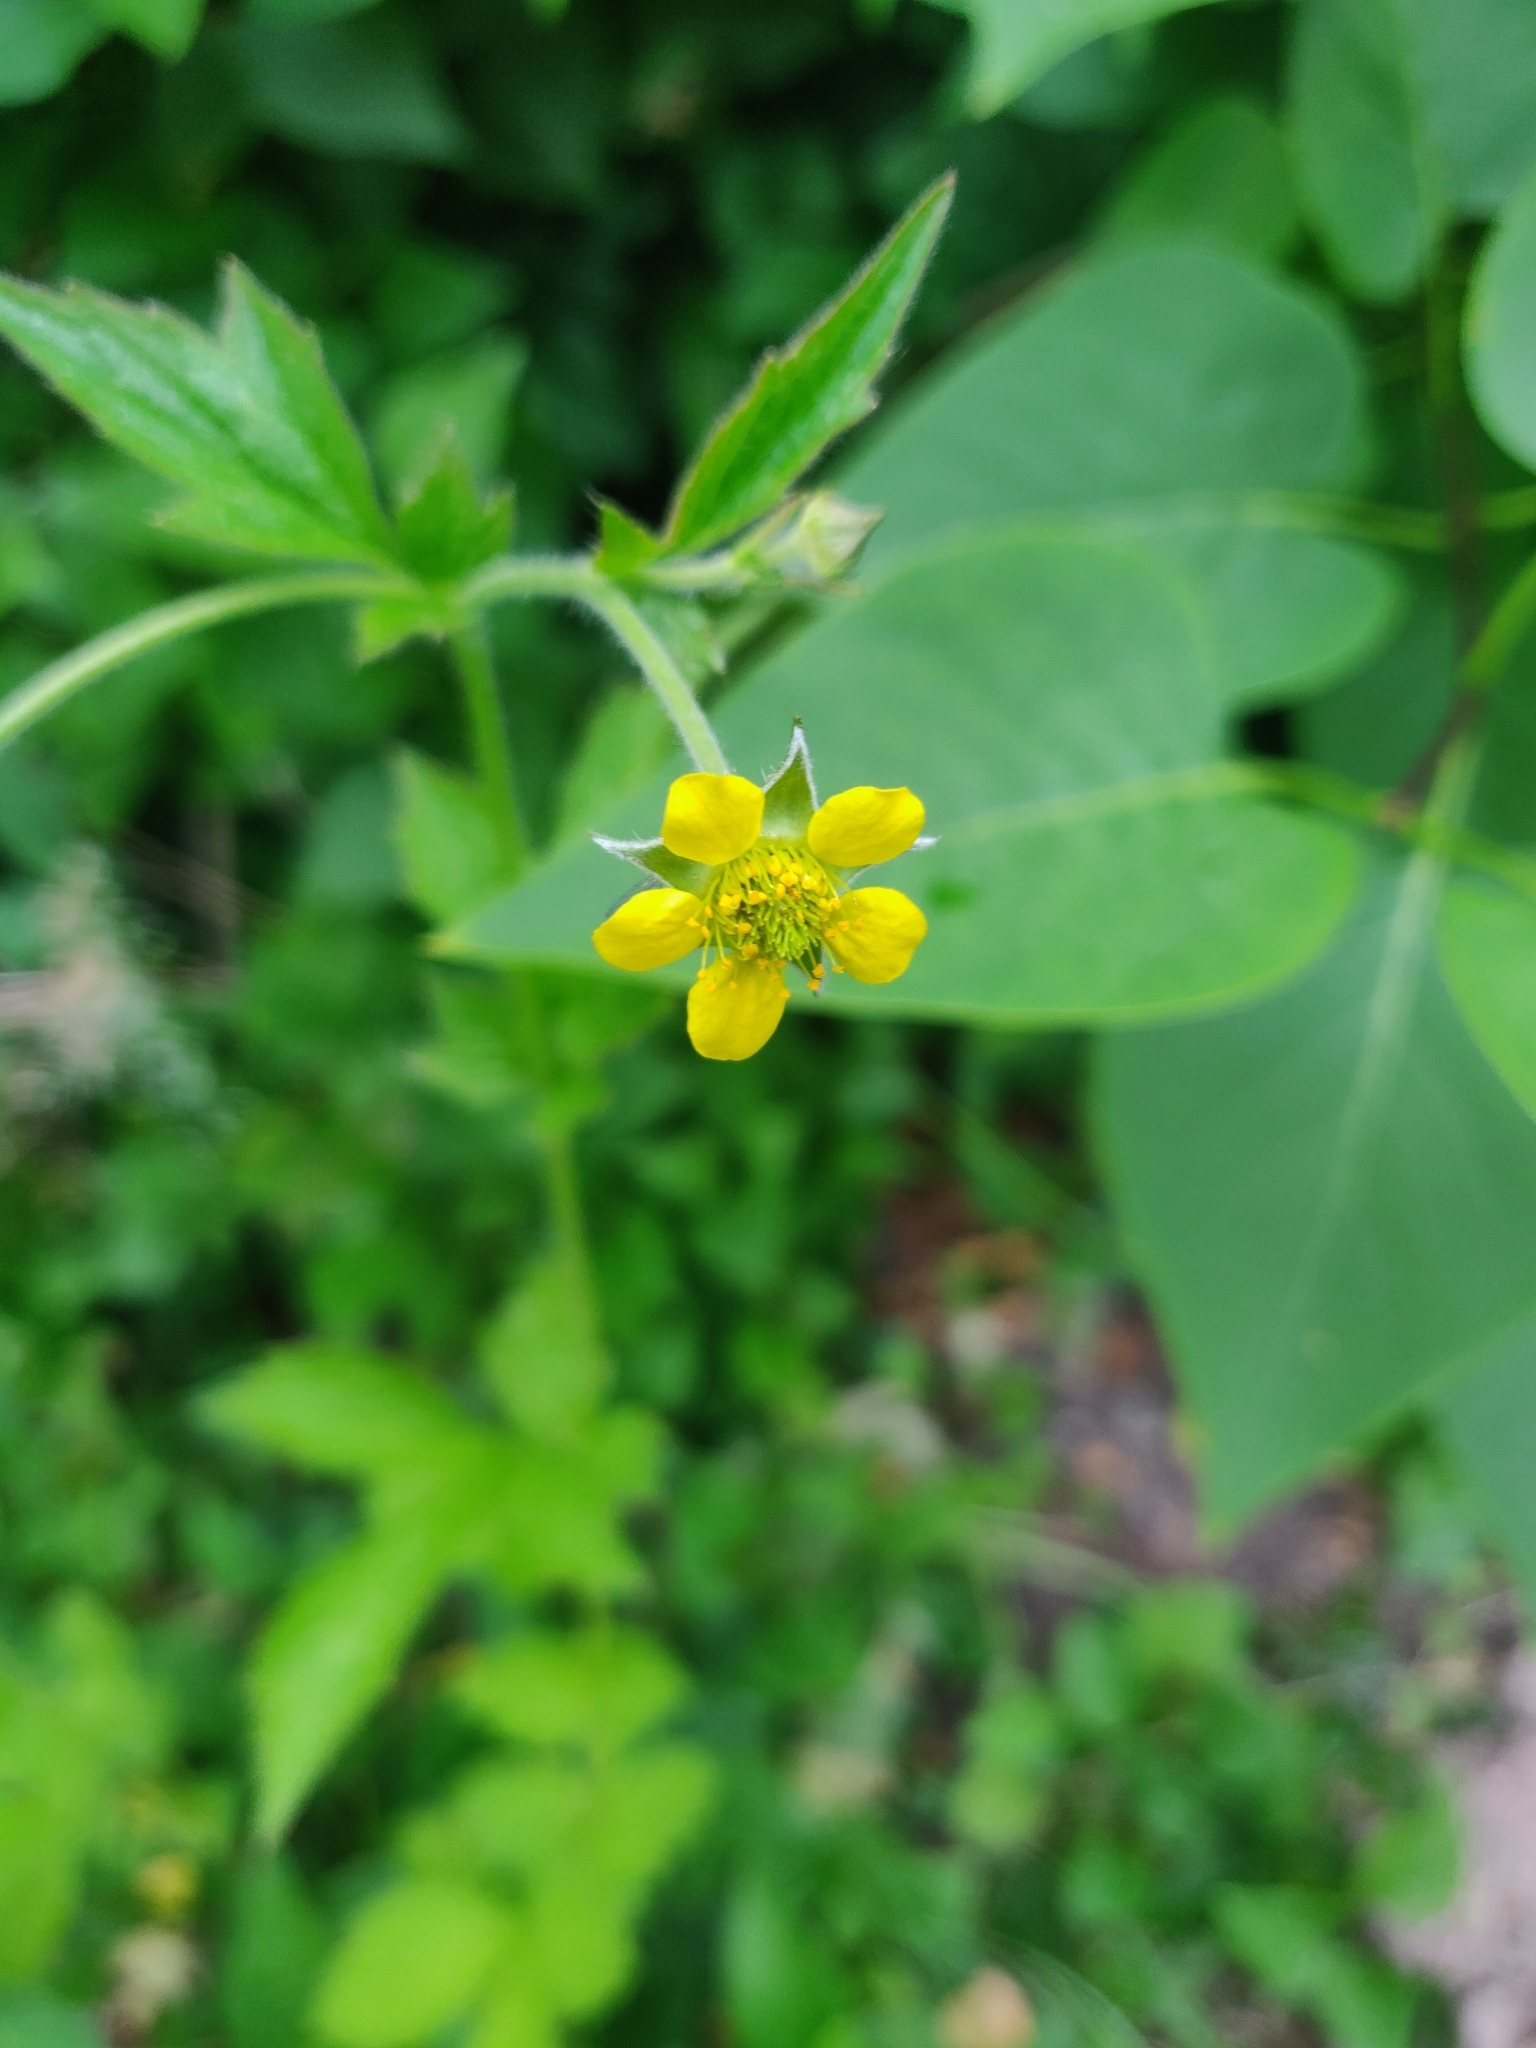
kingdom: Plantae
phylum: Tracheophyta
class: Magnoliopsida
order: Rosales
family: Rosaceae
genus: Geum
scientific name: Geum urbanum
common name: Wood avens
